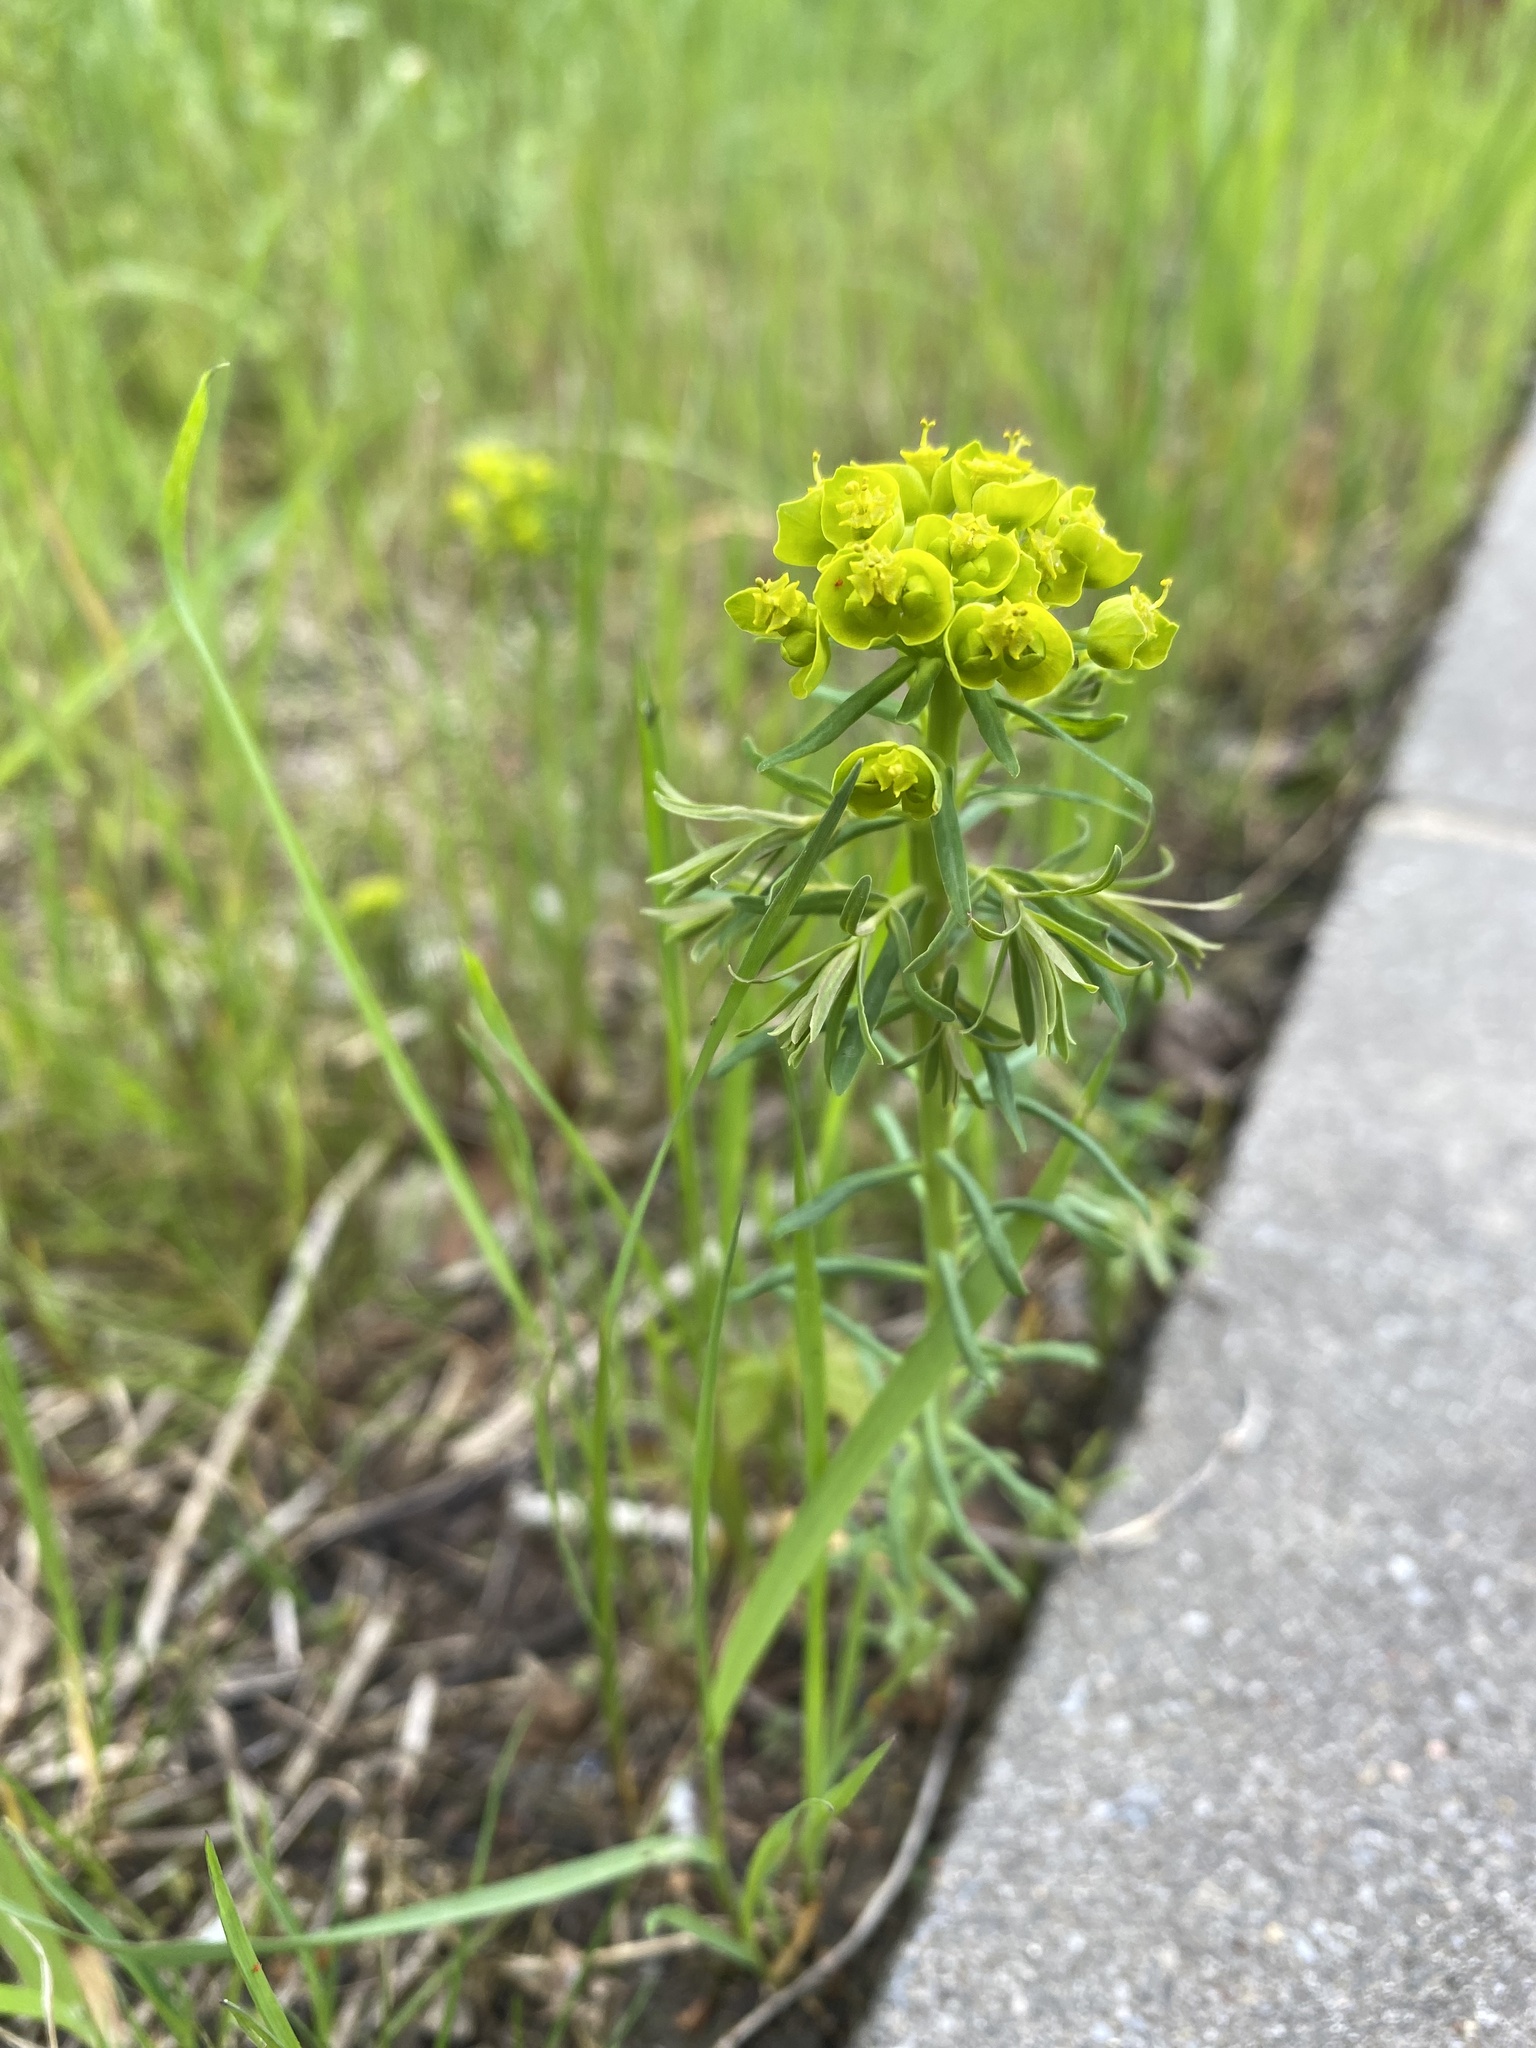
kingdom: Plantae
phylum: Tracheophyta
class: Magnoliopsida
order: Malpighiales
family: Euphorbiaceae
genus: Euphorbia
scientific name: Euphorbia cyparissias
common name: Cypress spurge
